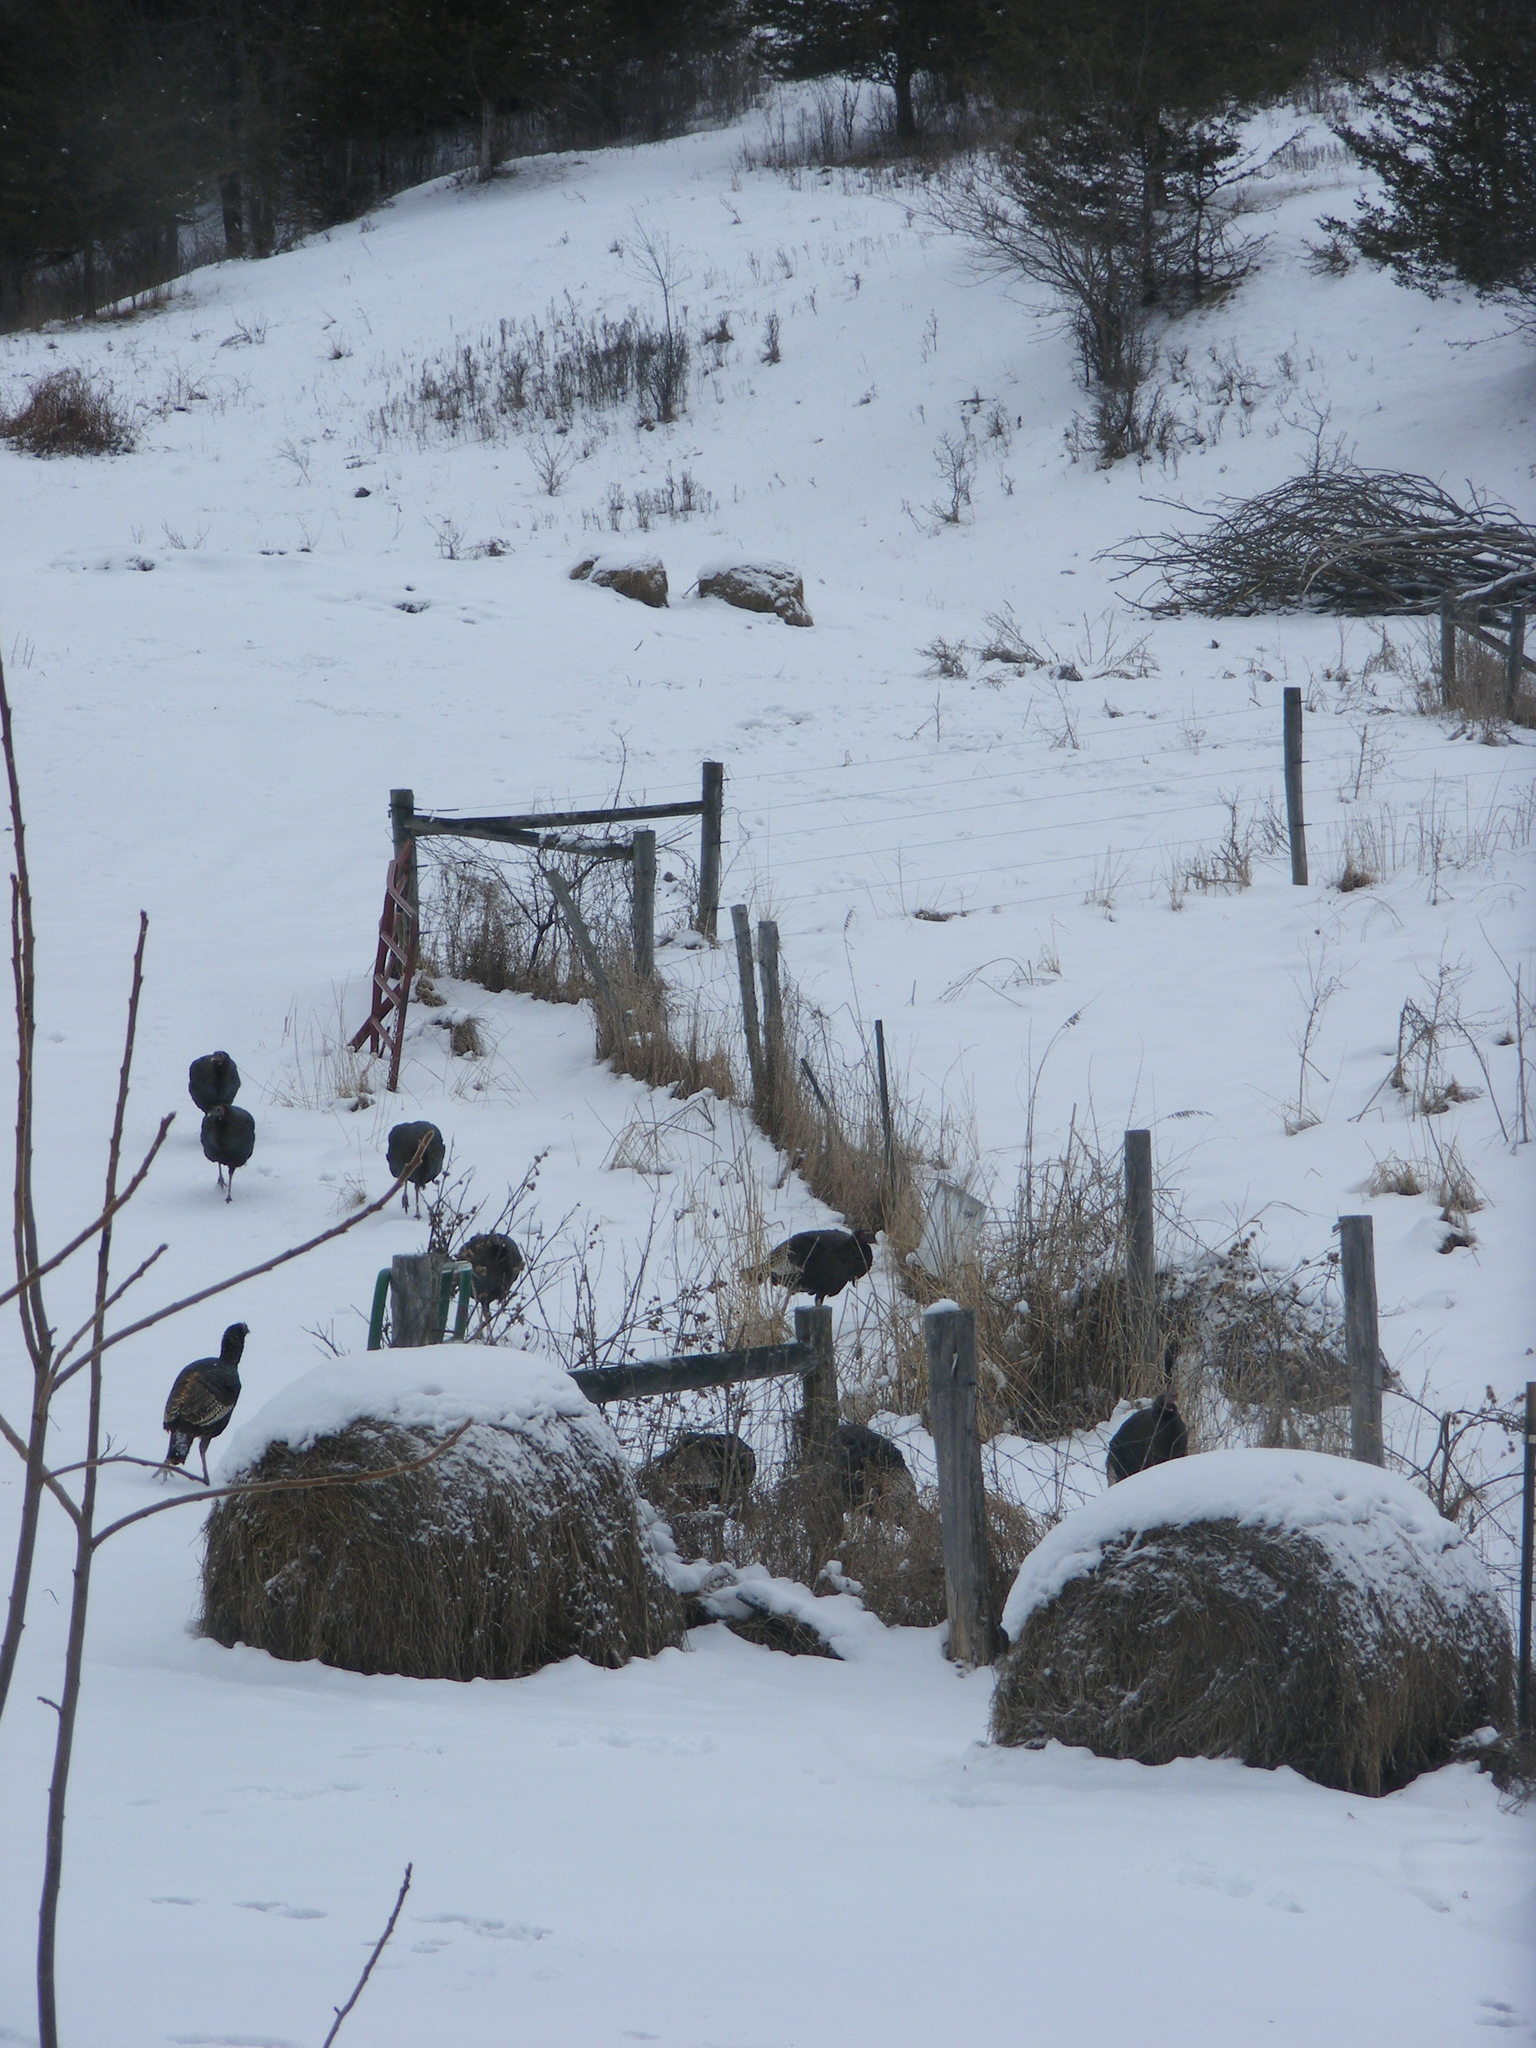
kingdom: Animalia
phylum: Chordata
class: Aves
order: Galliformes
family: Phasianidae
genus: Meleagris
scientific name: Meleagris gallopavo
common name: Wild turkey
